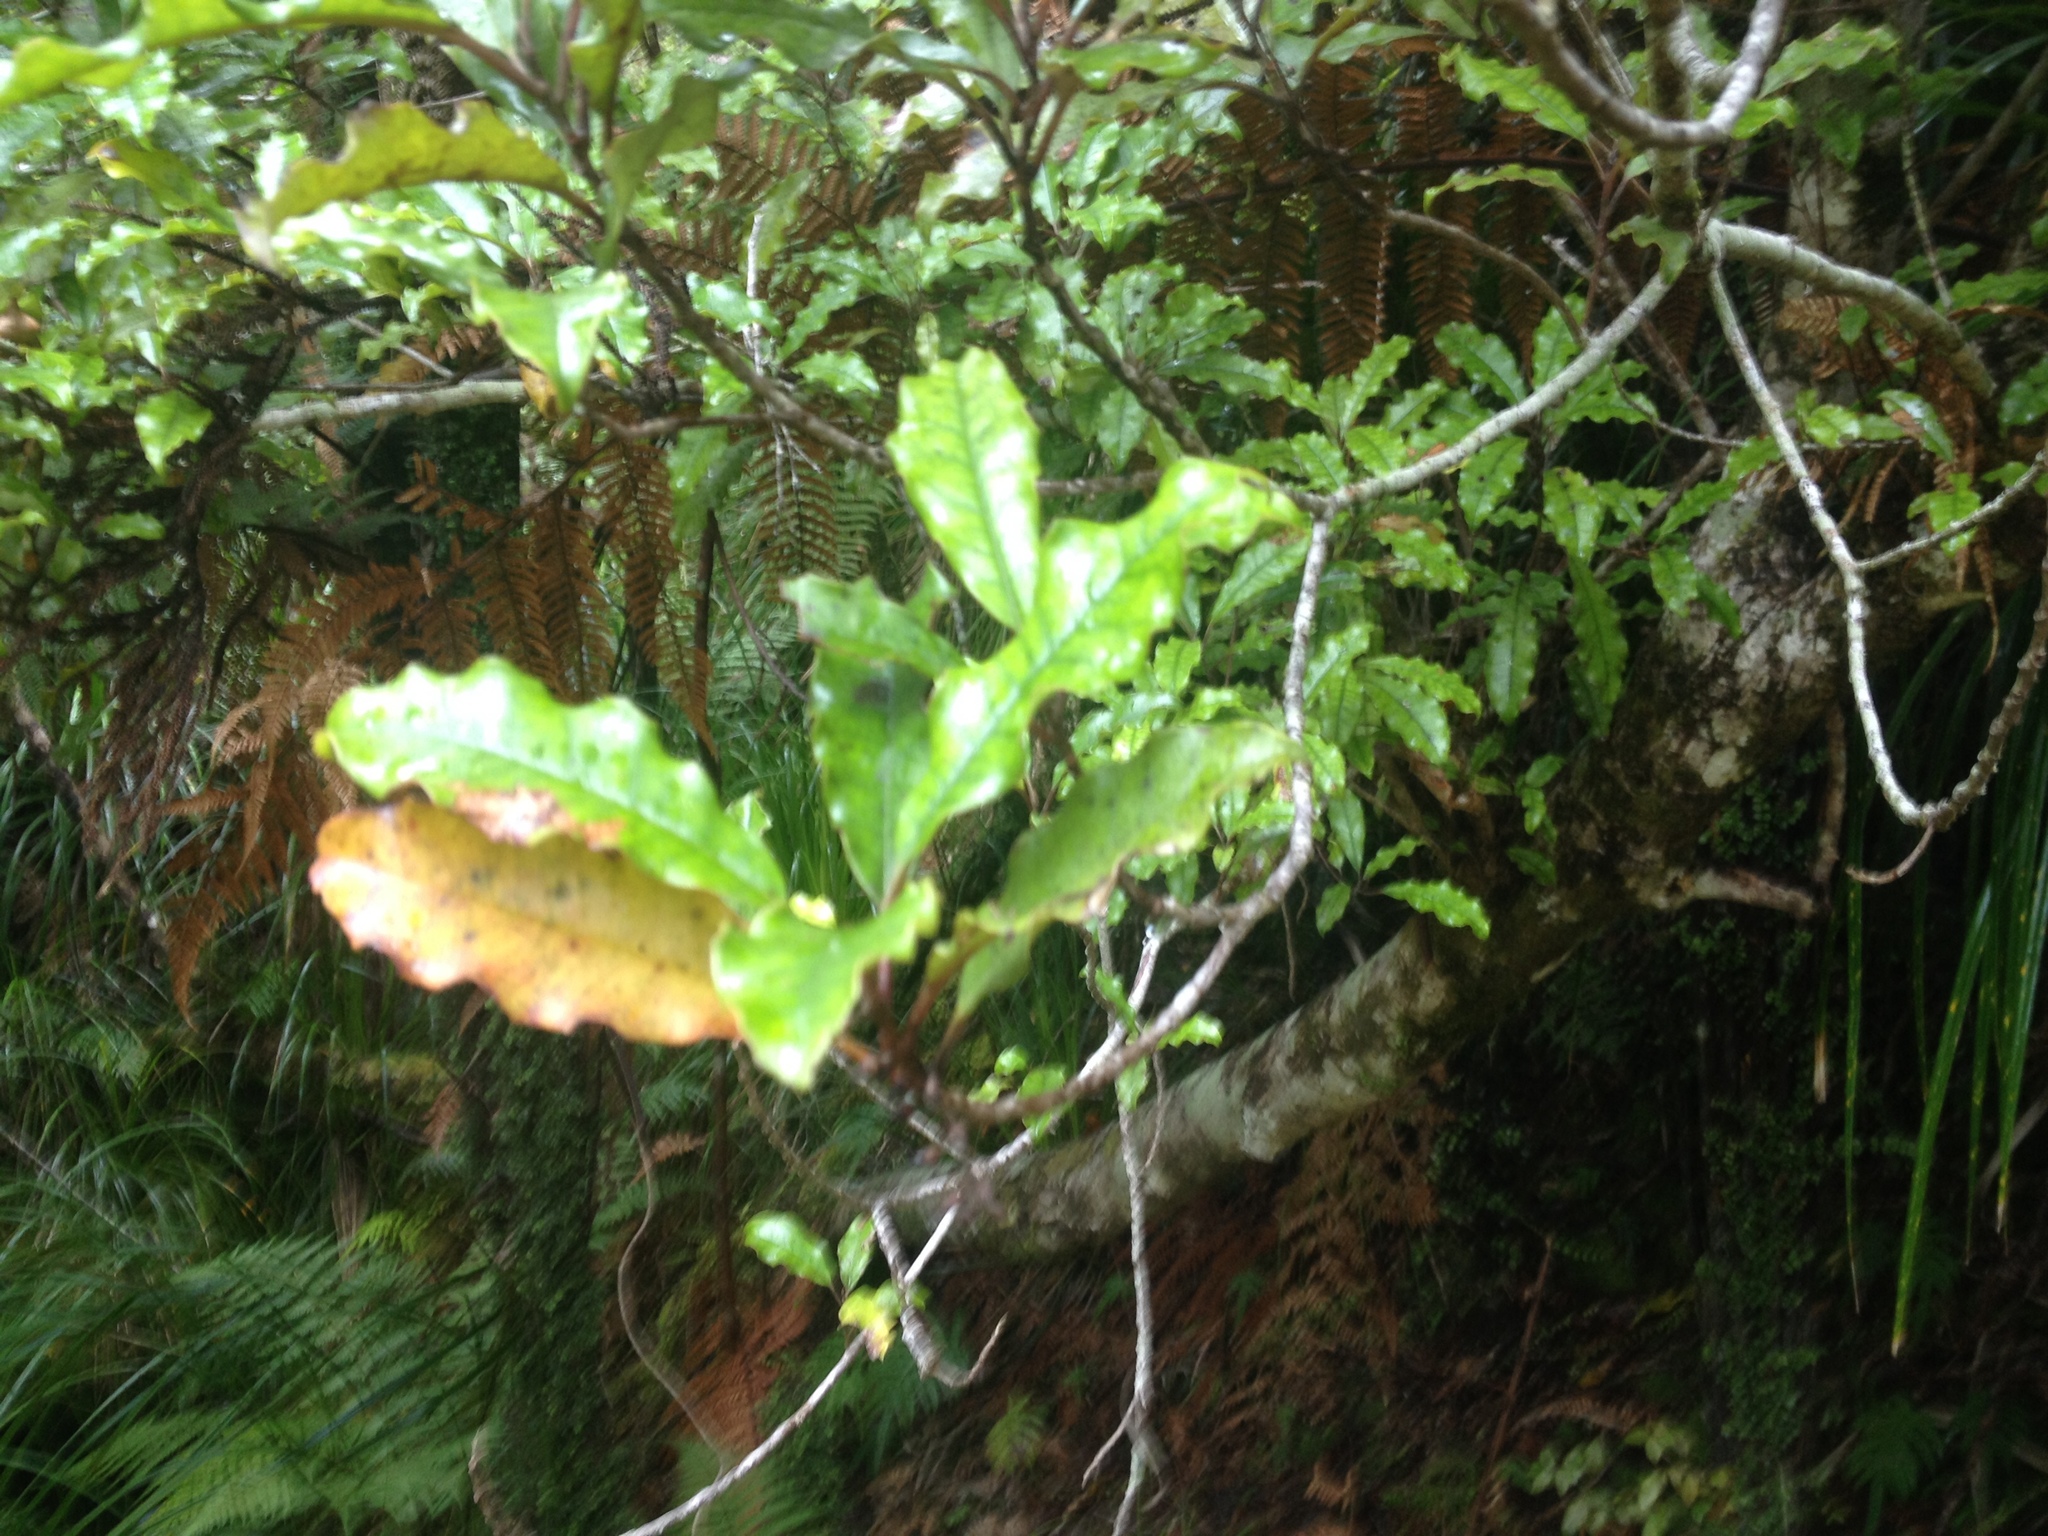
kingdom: Plantae
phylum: Tracheophyta
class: Magnoliopsida
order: Paracryphiales
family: Paracryphiaceae
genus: Quintinia
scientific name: Quintinia serrata
